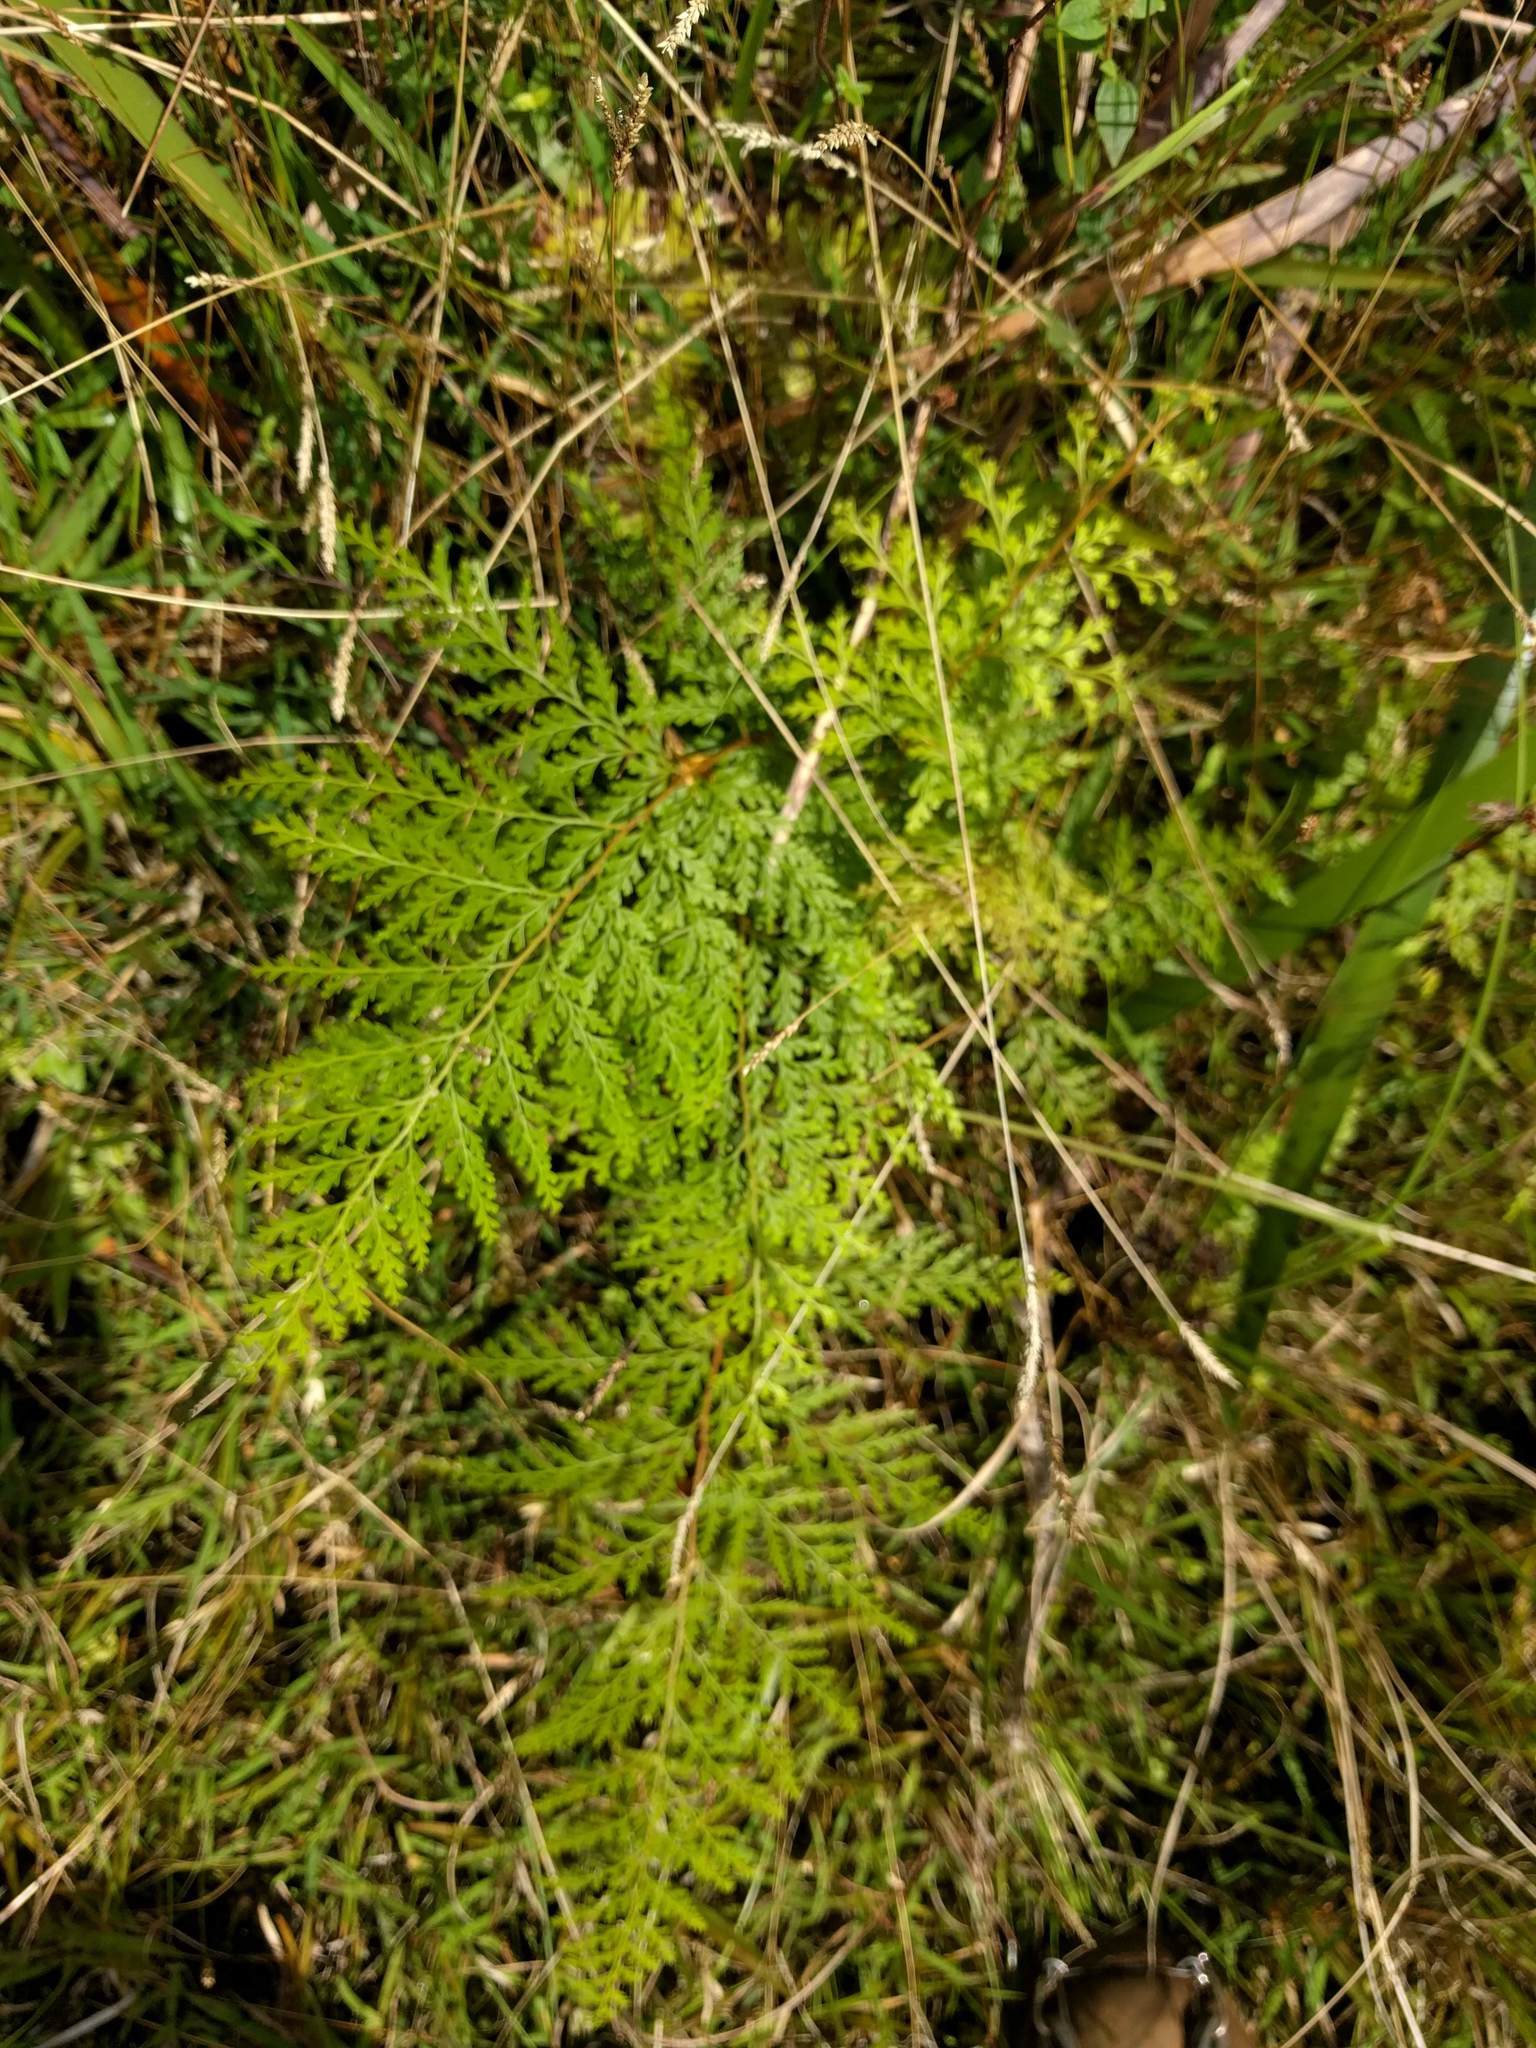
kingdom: Plantae
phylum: Tracheophyta
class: Polypodiopsida
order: Polypodiales
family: Lindsaeaceae
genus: Odontosoria
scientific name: Odontosoria chinensis
